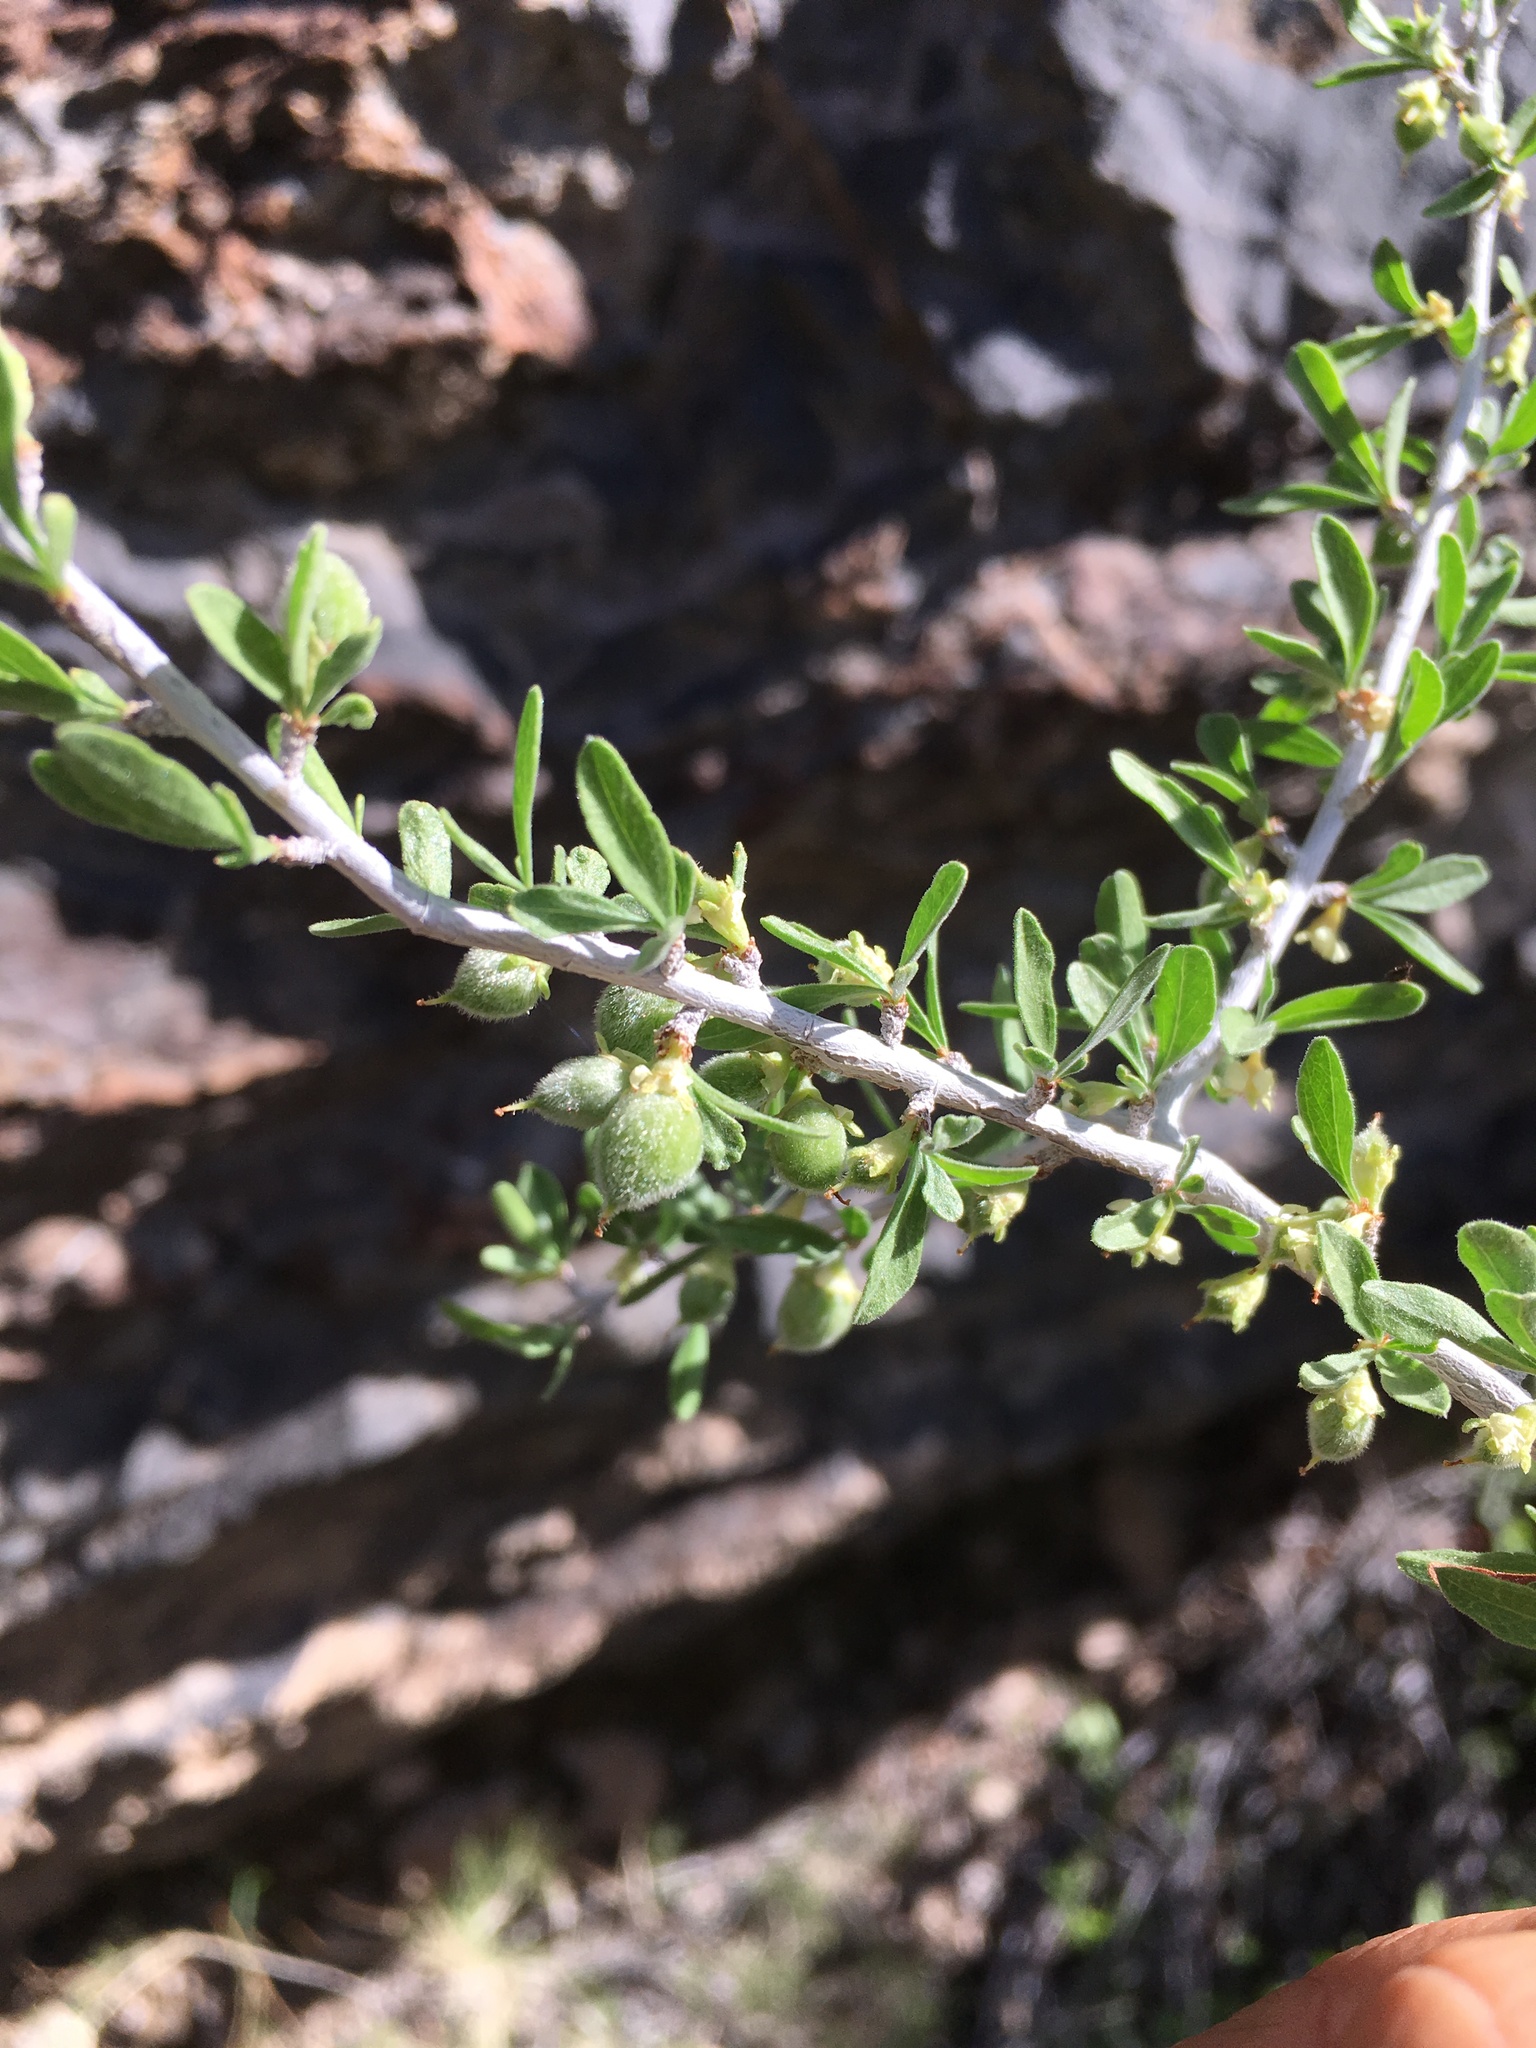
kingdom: Plantae
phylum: Tracheophyta
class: Magnoliopsida
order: Rosales
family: Rosaceae
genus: Prunus
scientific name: Prunus fasciculata
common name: Desert almond
